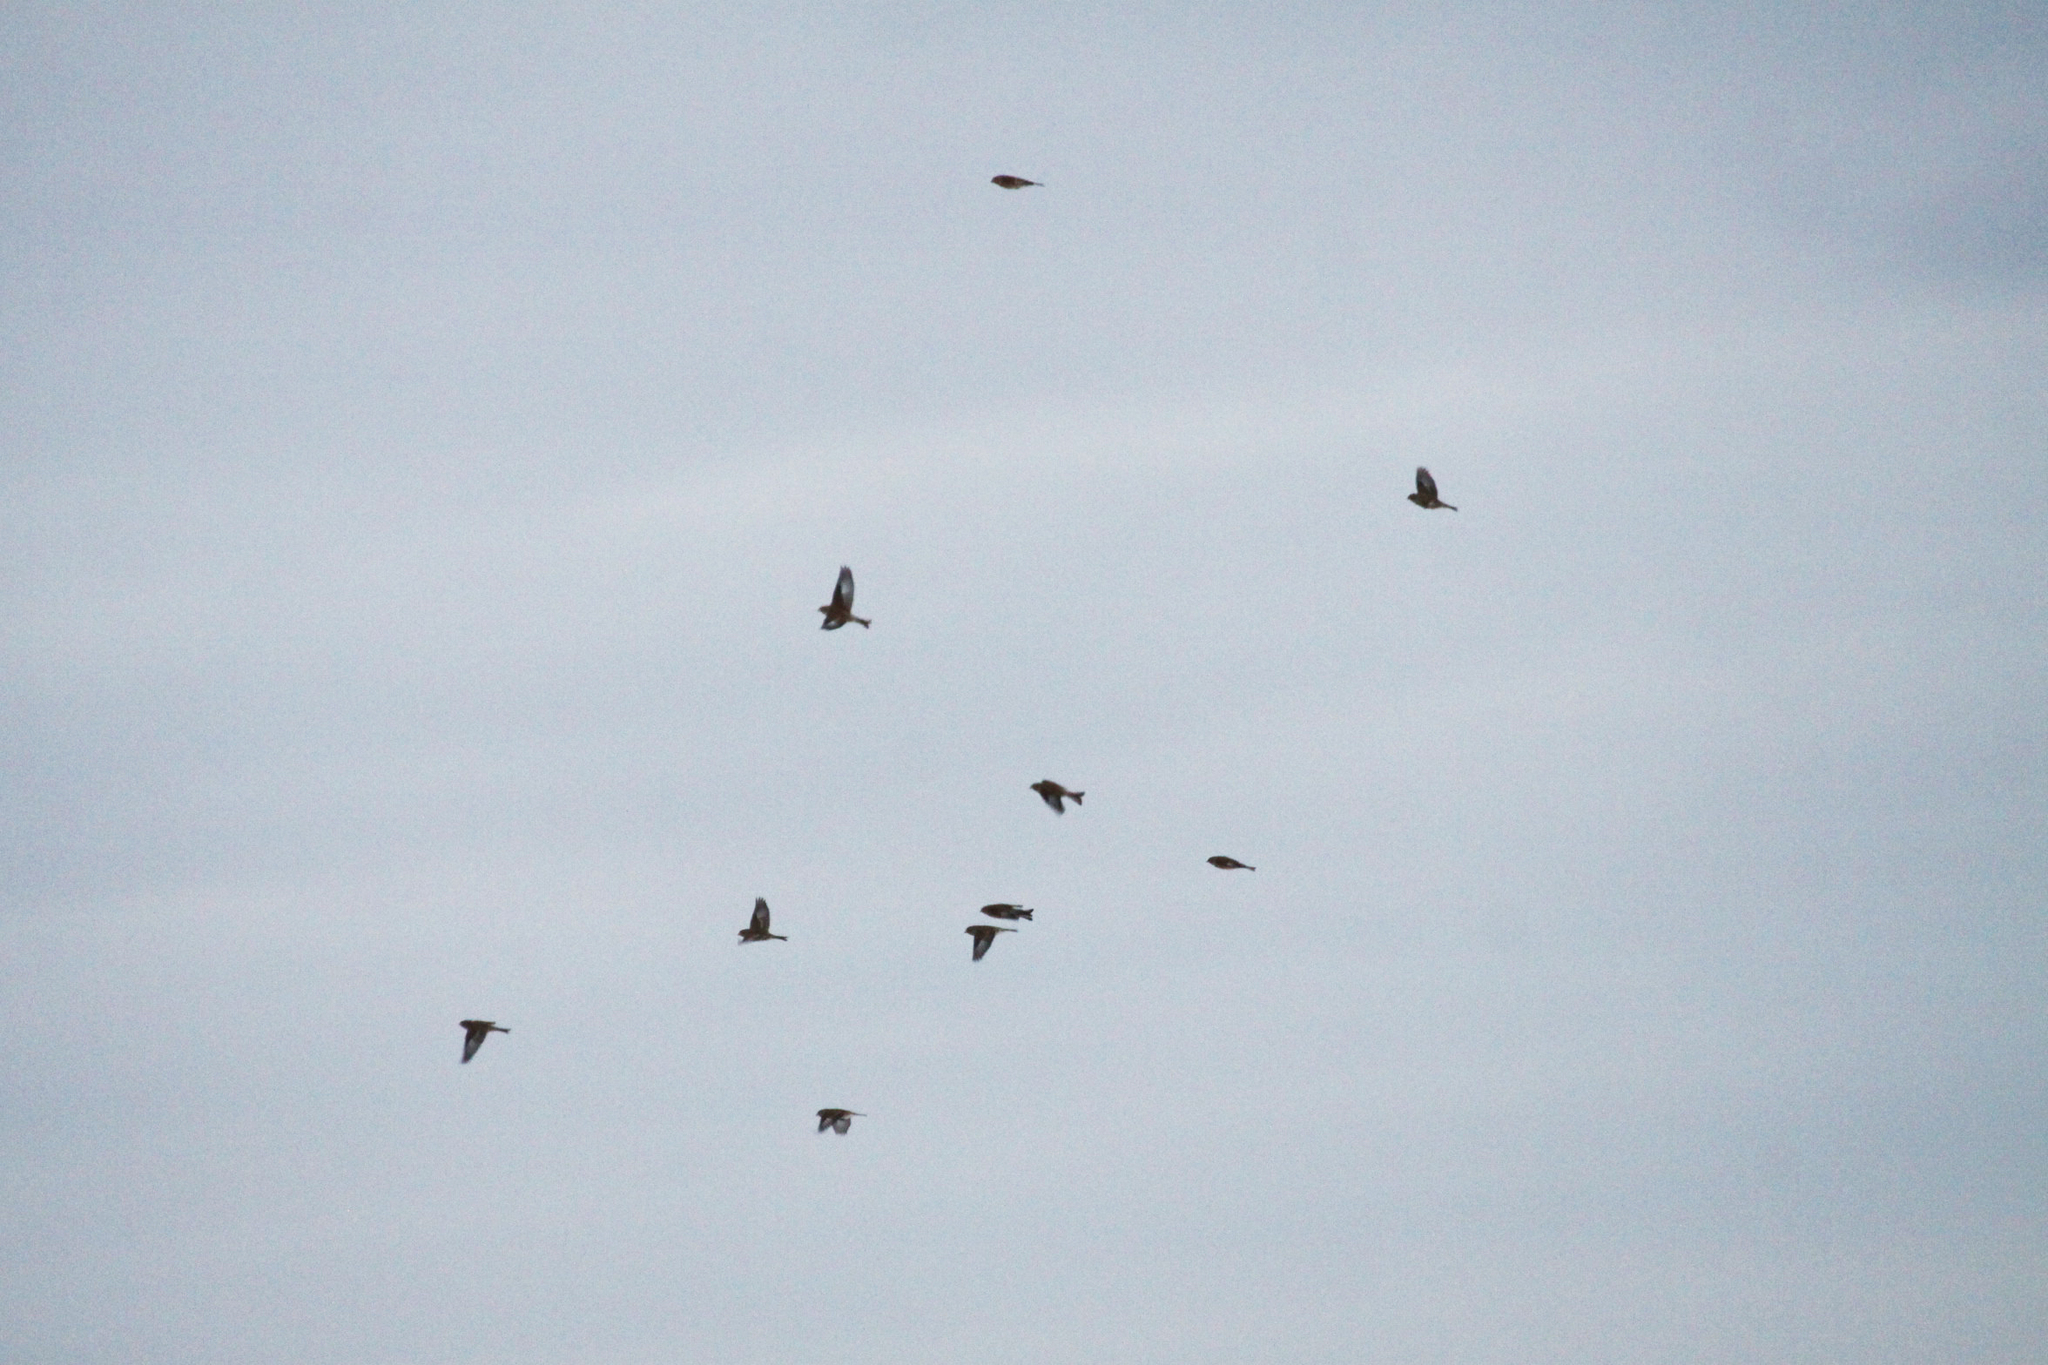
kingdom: Animalia
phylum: Chordata
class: Aves
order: Passeriformes
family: Fringillidae
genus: Linaria
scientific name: Linaria cannabina
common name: Common linnet
